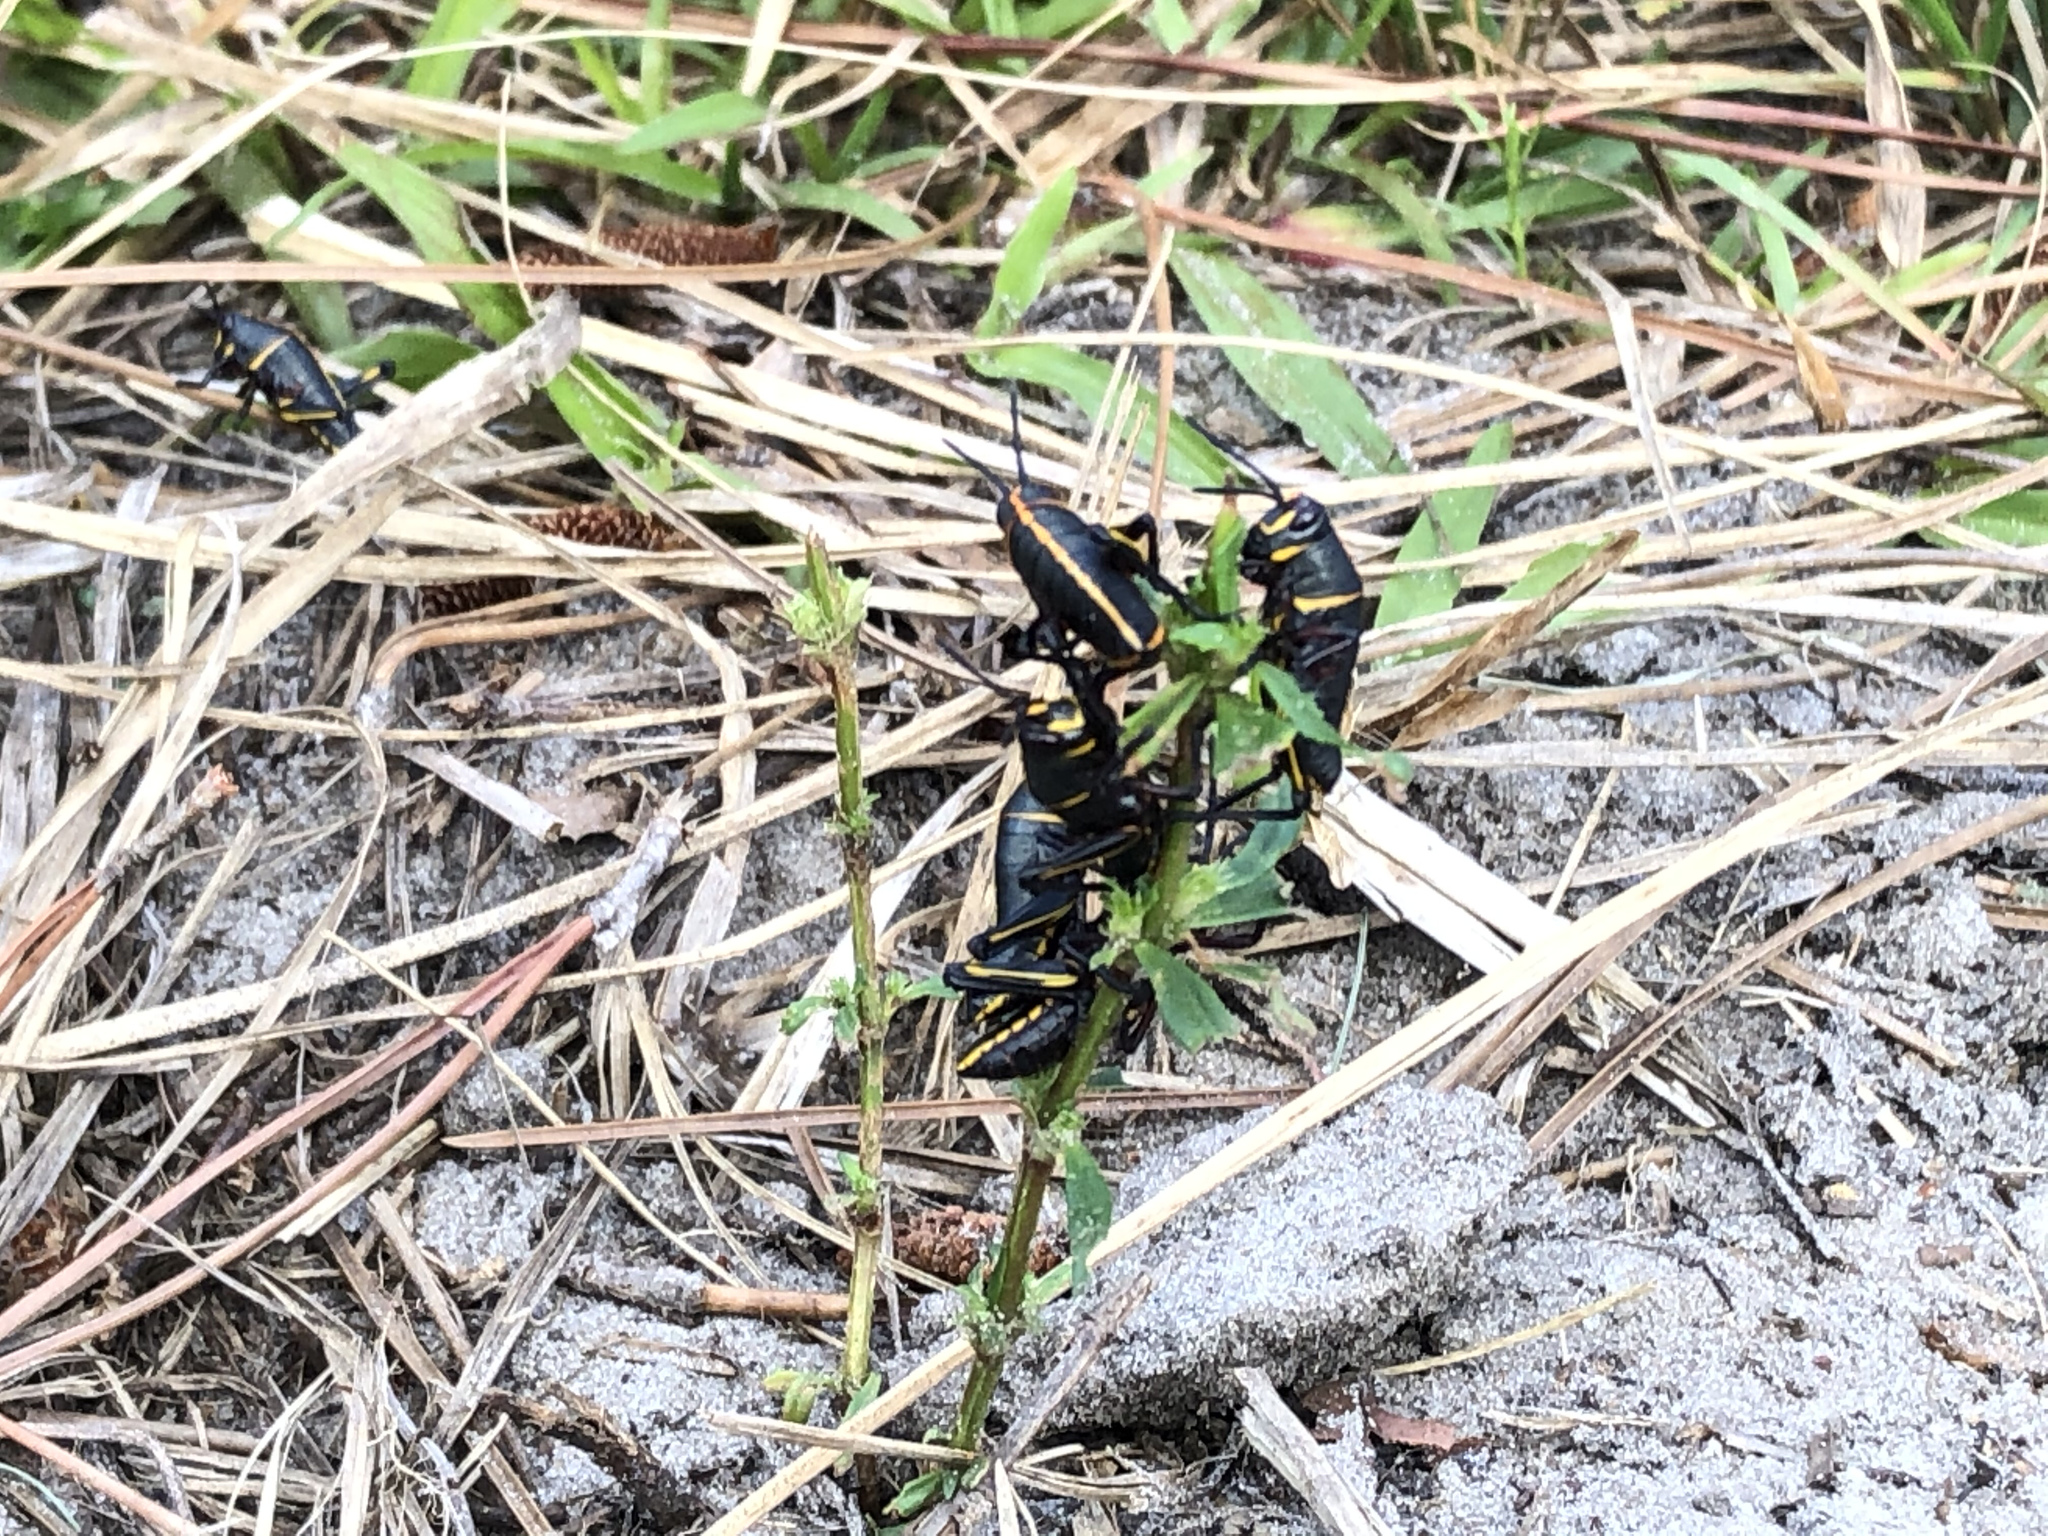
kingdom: Animalia
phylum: Arthropoda
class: Insecta
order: Orthoptera
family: Romaleidae
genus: Romalea
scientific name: Romalea microptera
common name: Eastern lubber grasshopper
